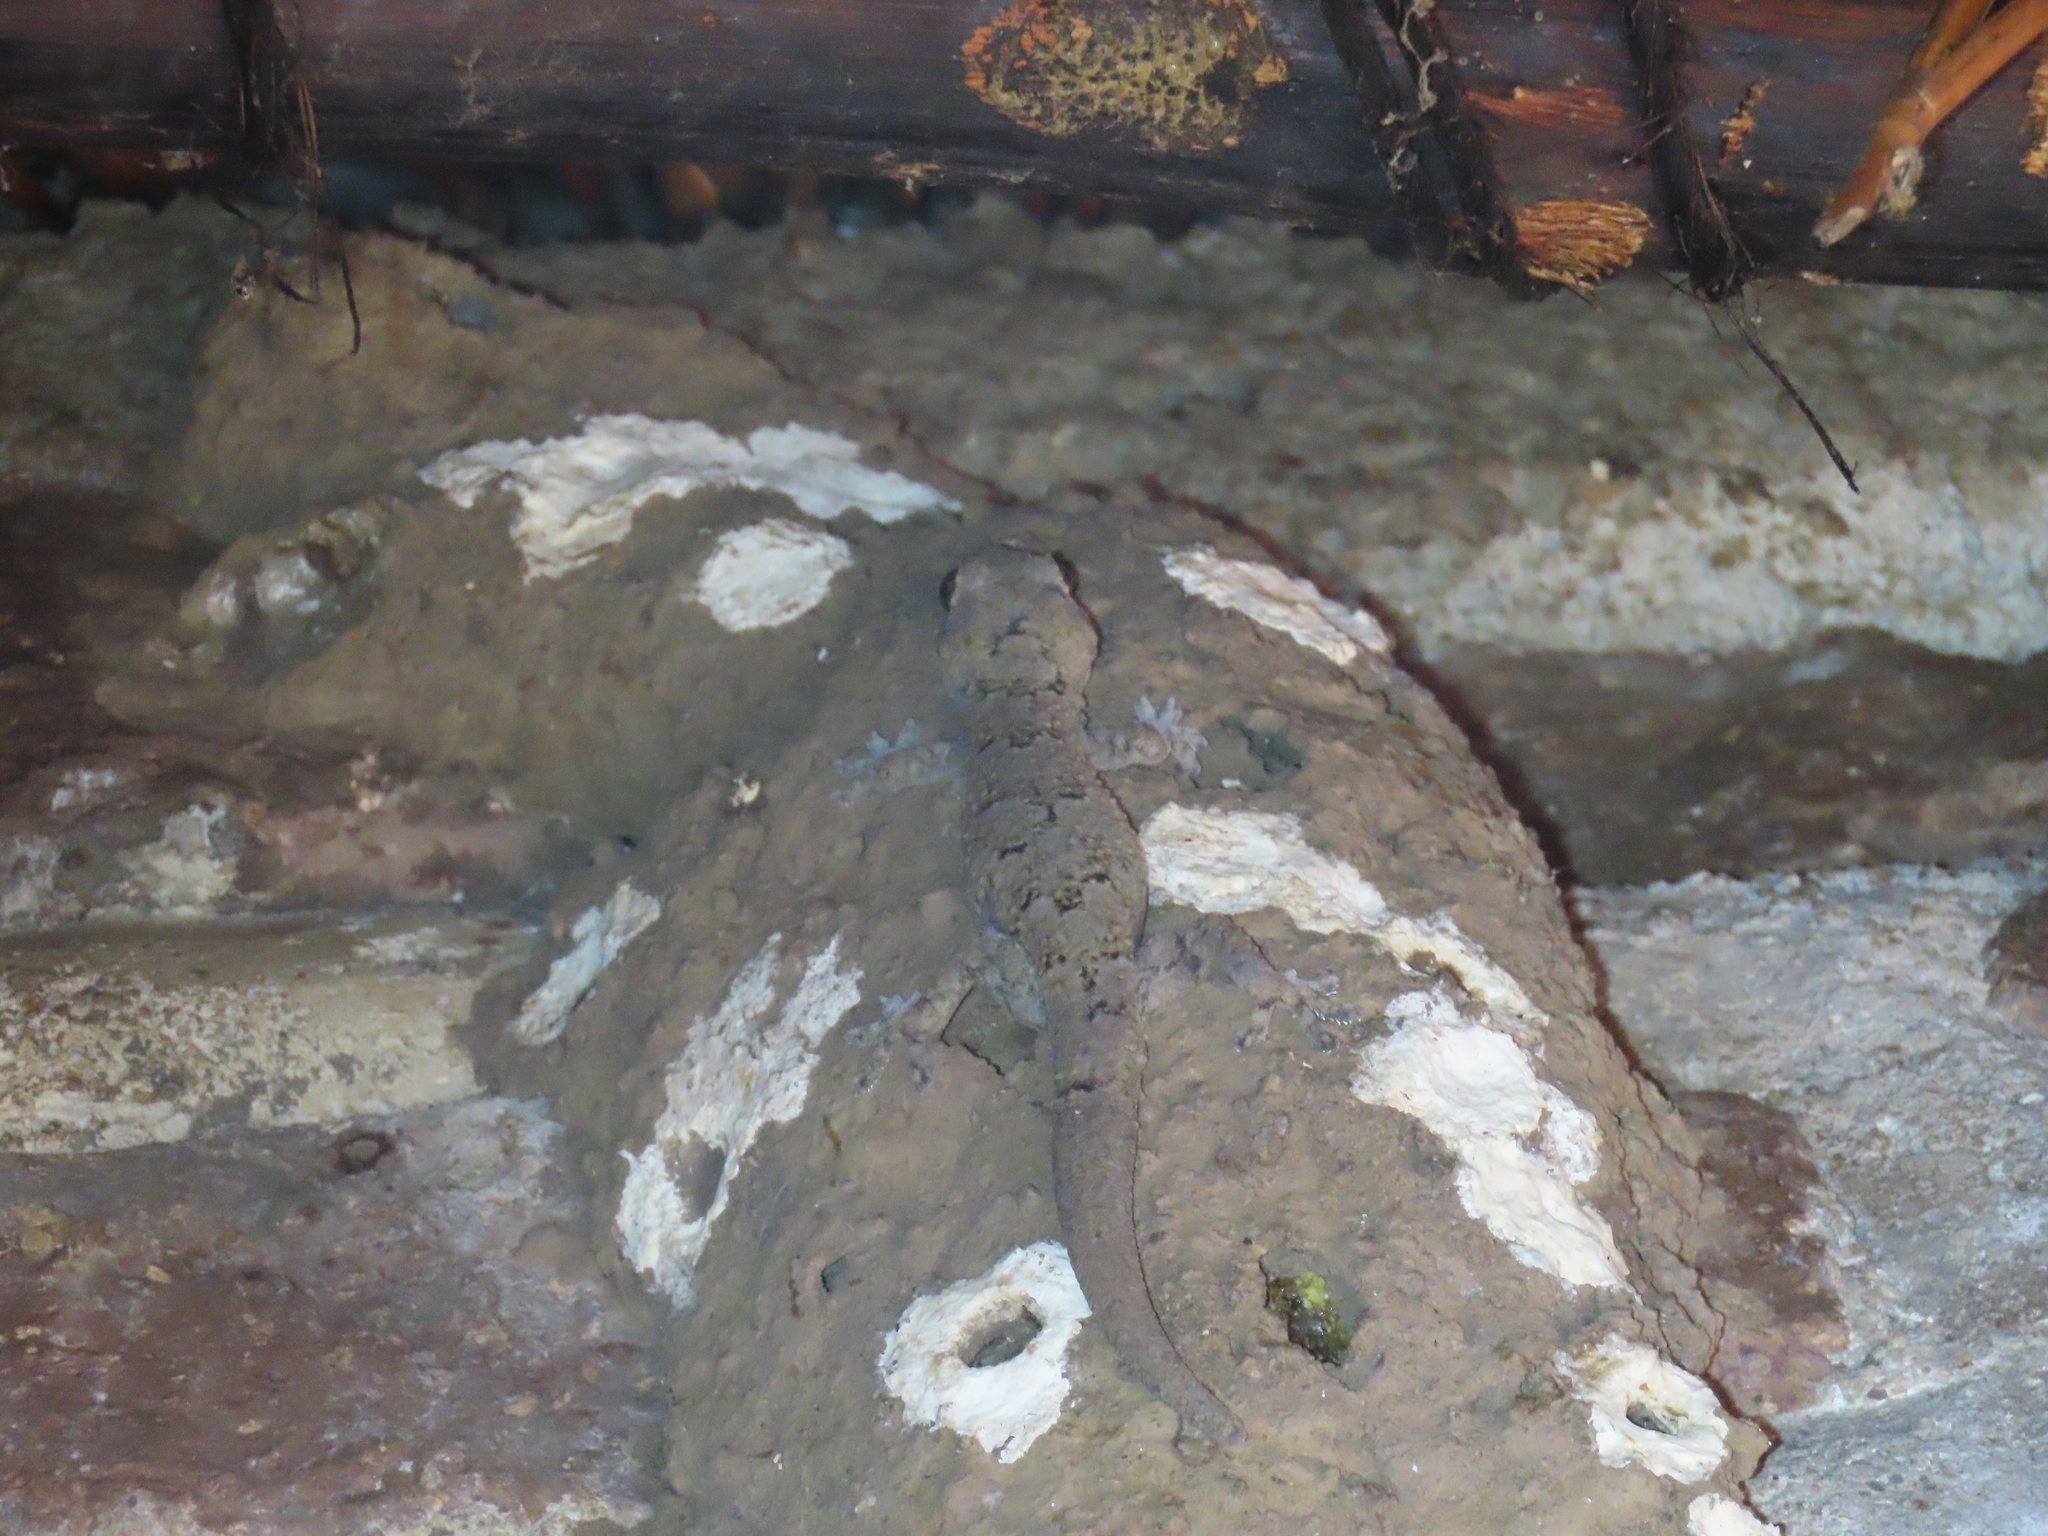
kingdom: Animalia
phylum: Chordata
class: Squamata
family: Gekkonidae
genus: Hemidactylus
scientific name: Hemidactylus mabouia
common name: House gecko
